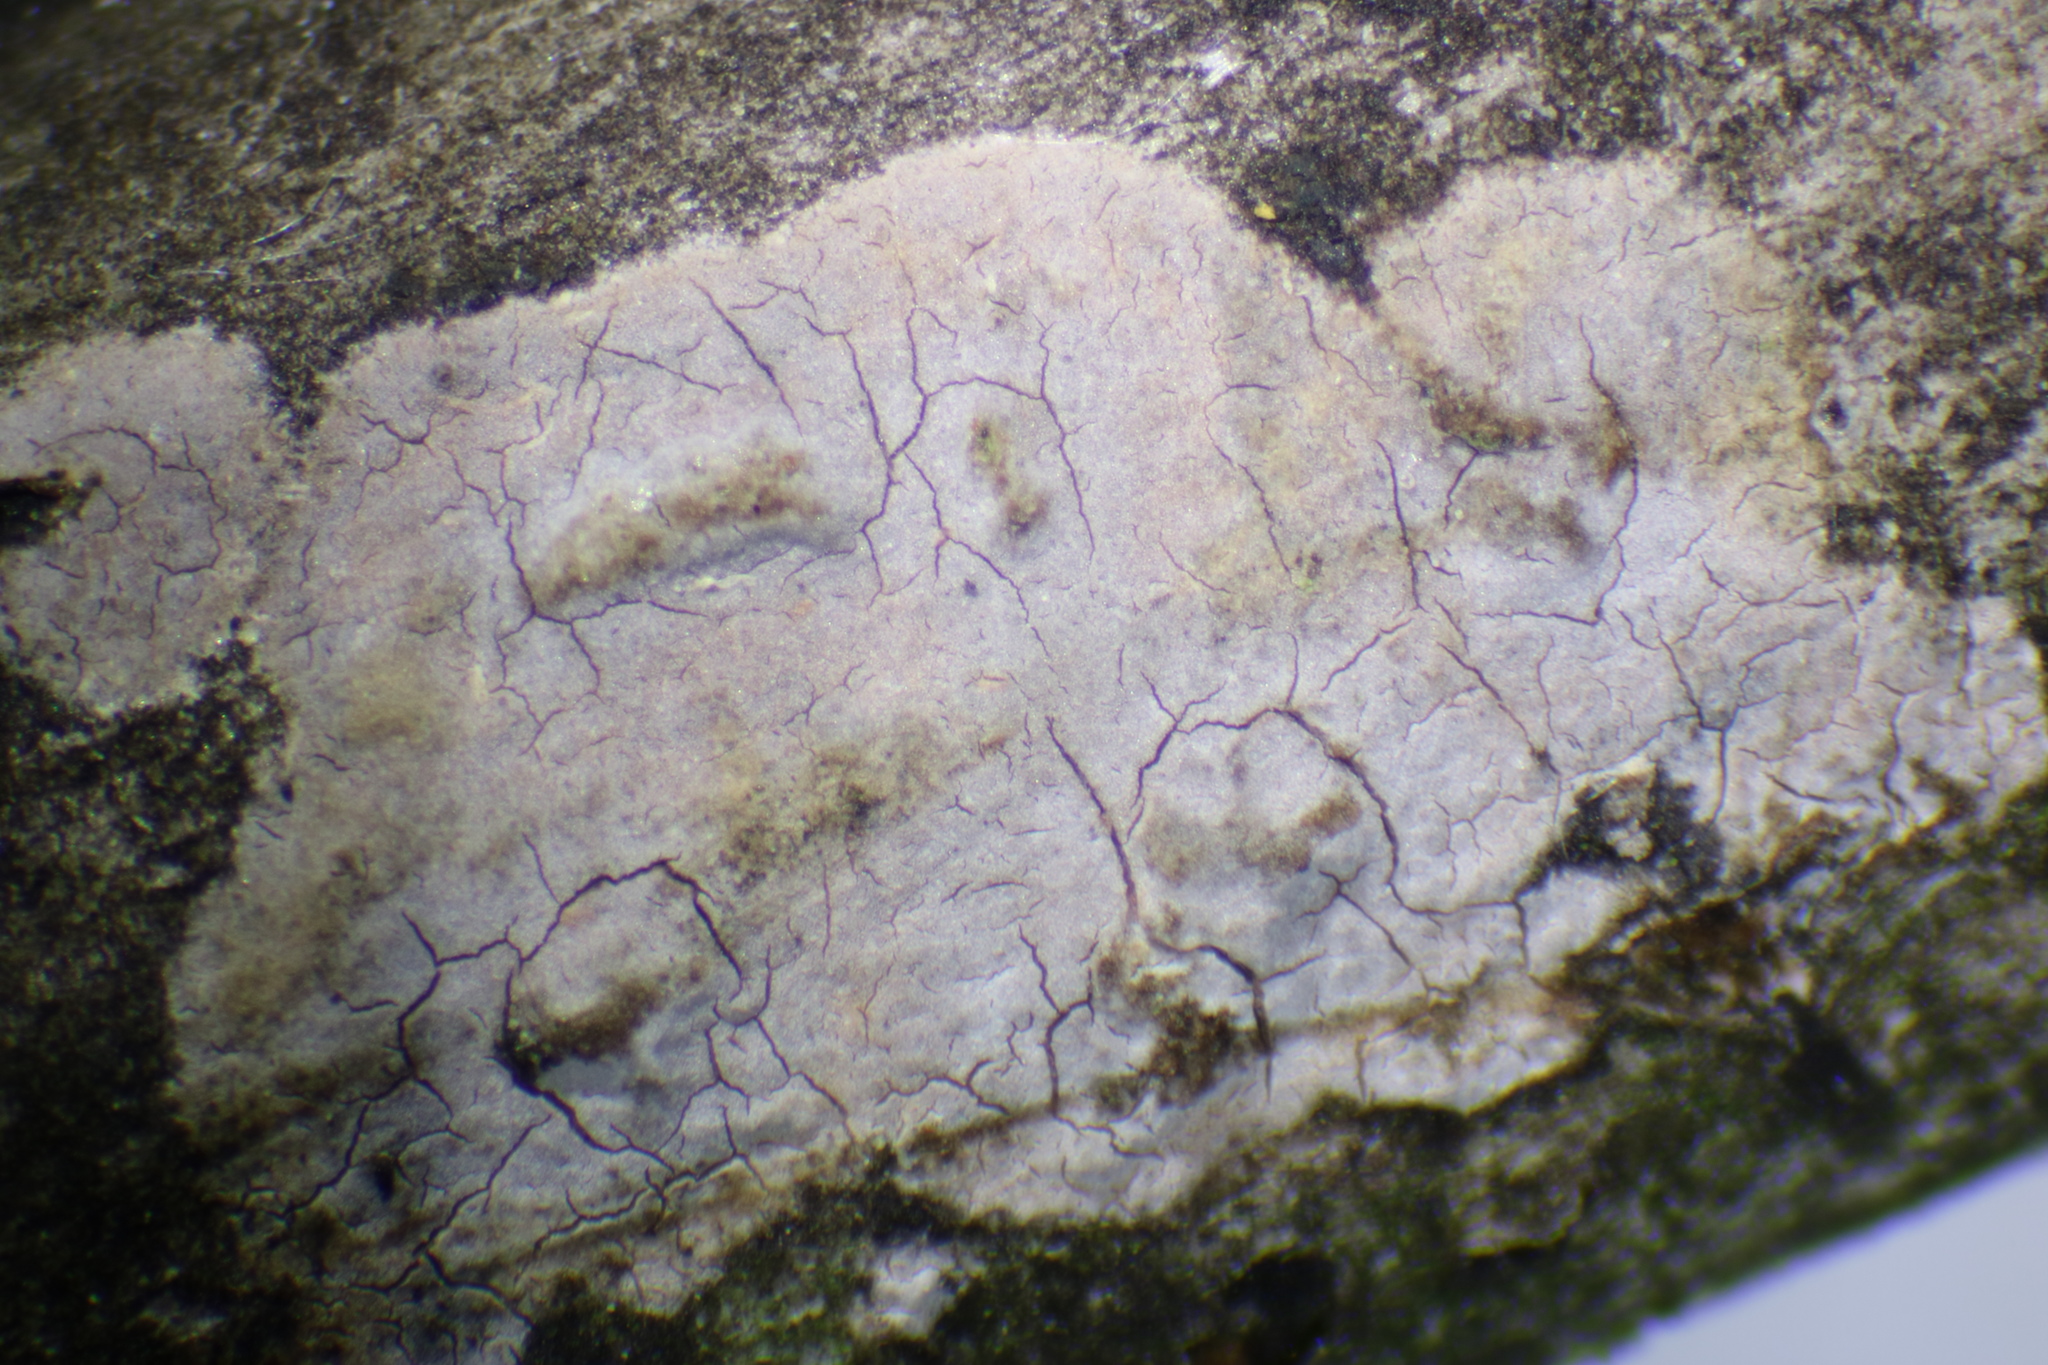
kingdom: Fungi
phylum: Basidiomycota
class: Tremellomycetes
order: Tremellales
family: Tremellaceae
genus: Tremella
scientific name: Tremella mesenterica
